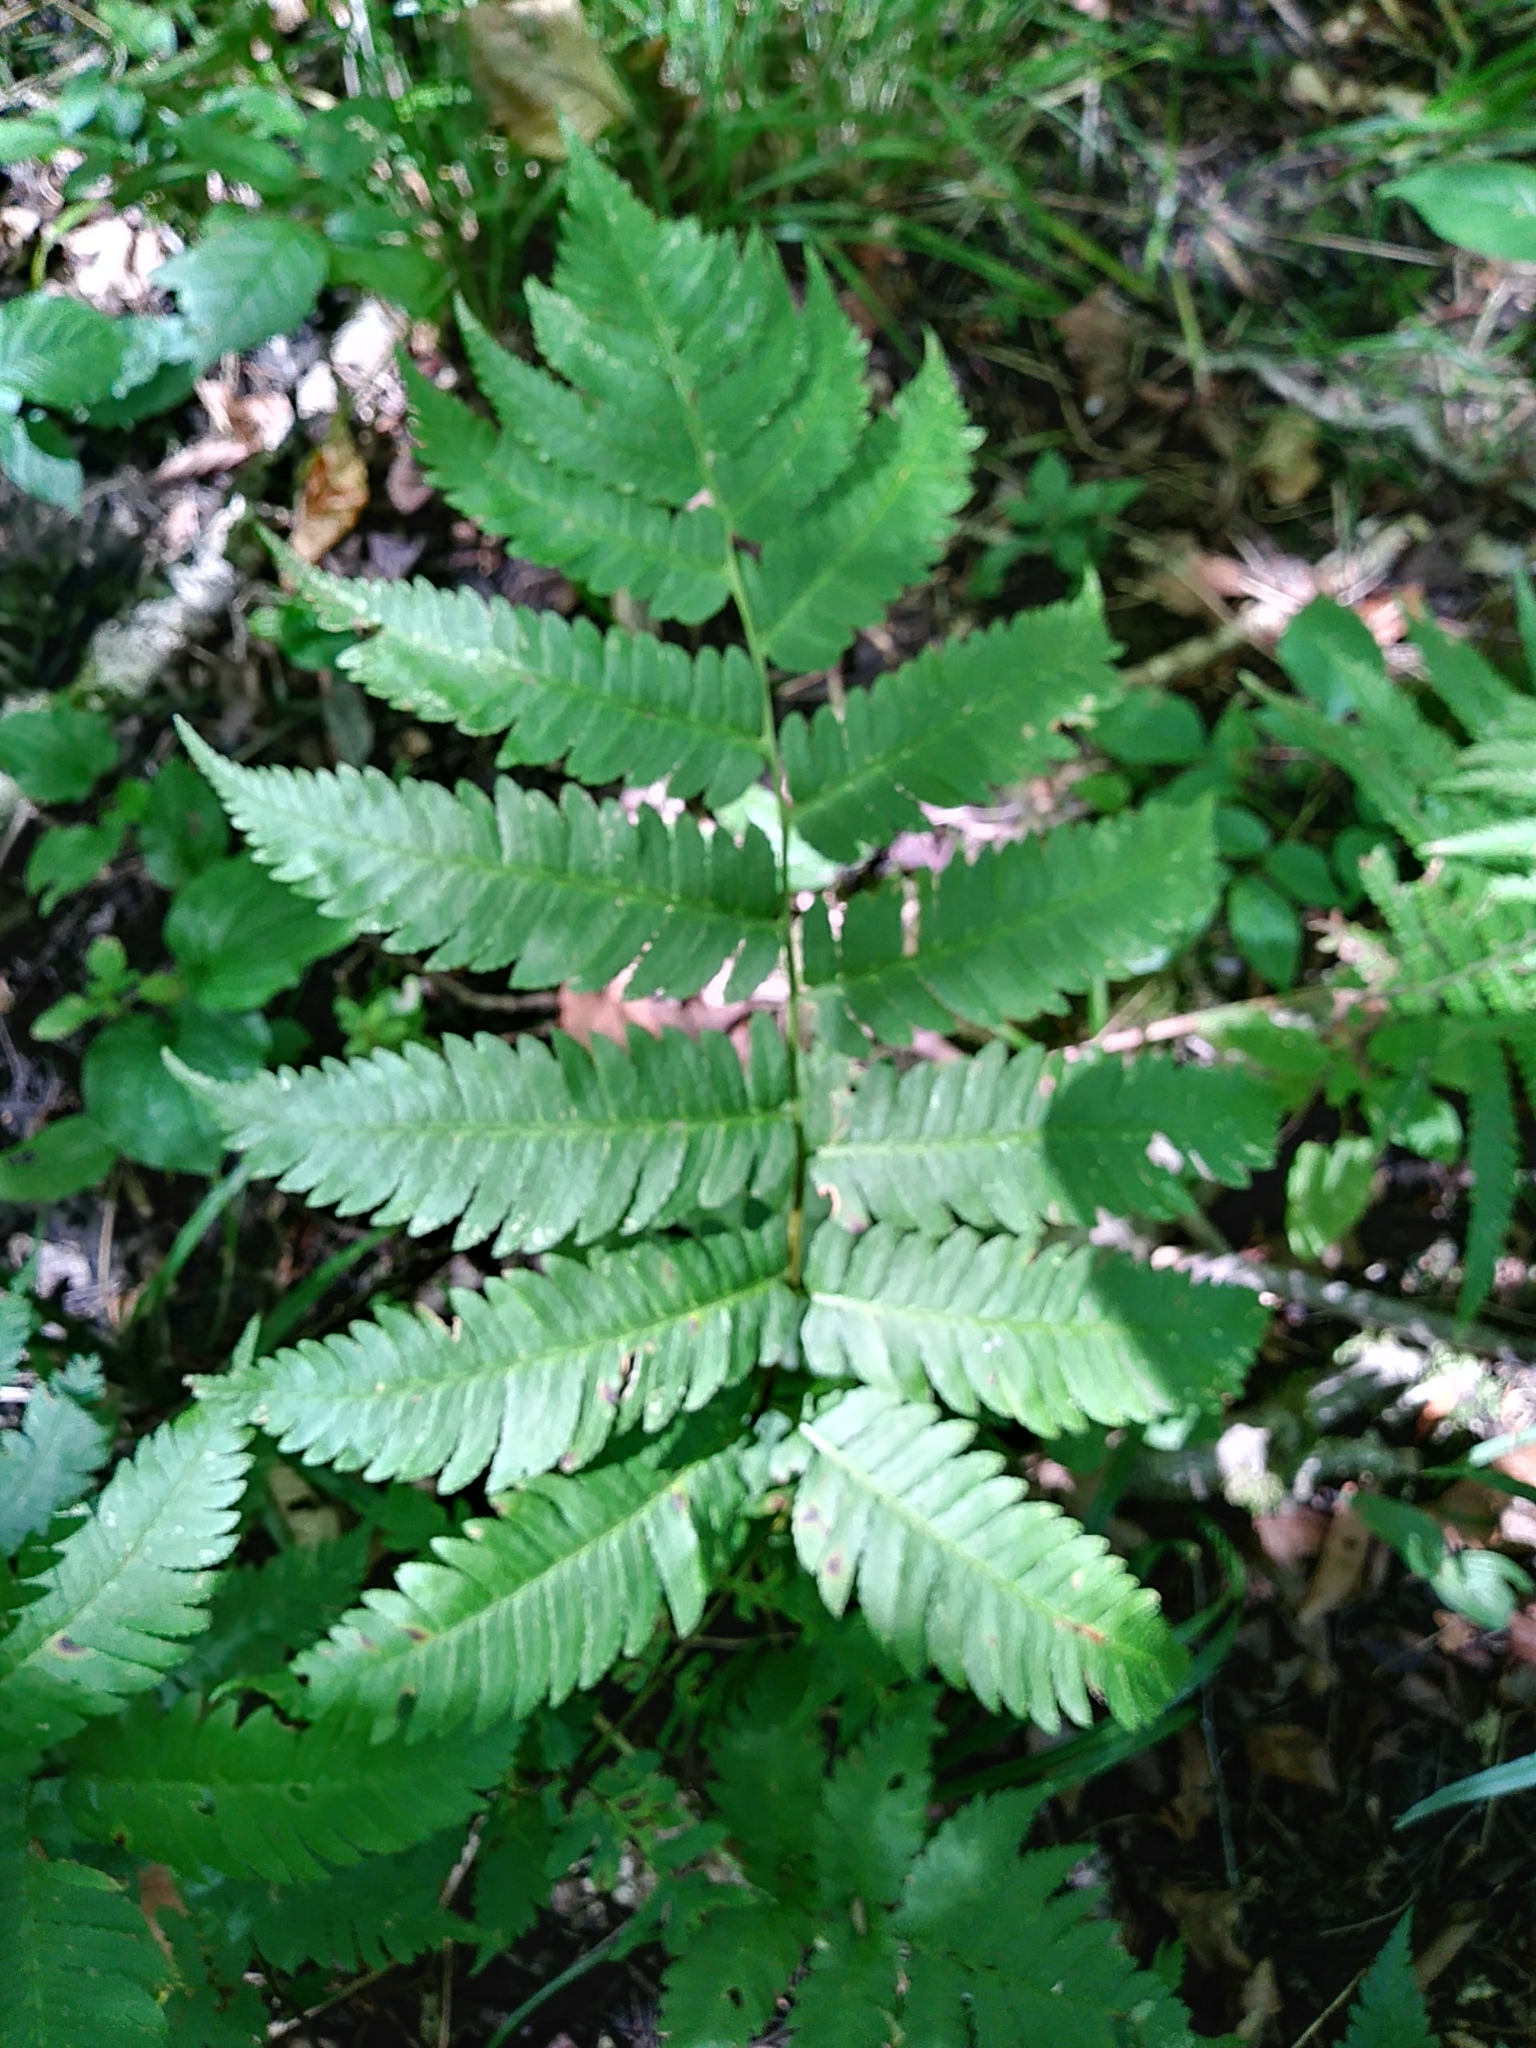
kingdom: Plantae
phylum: Tracheophyta
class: Polypodiopsida
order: Polypodiales
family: Dryopteridaceae
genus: Dryopteris
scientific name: Dryopteris goldieana
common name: Goldie's fern
